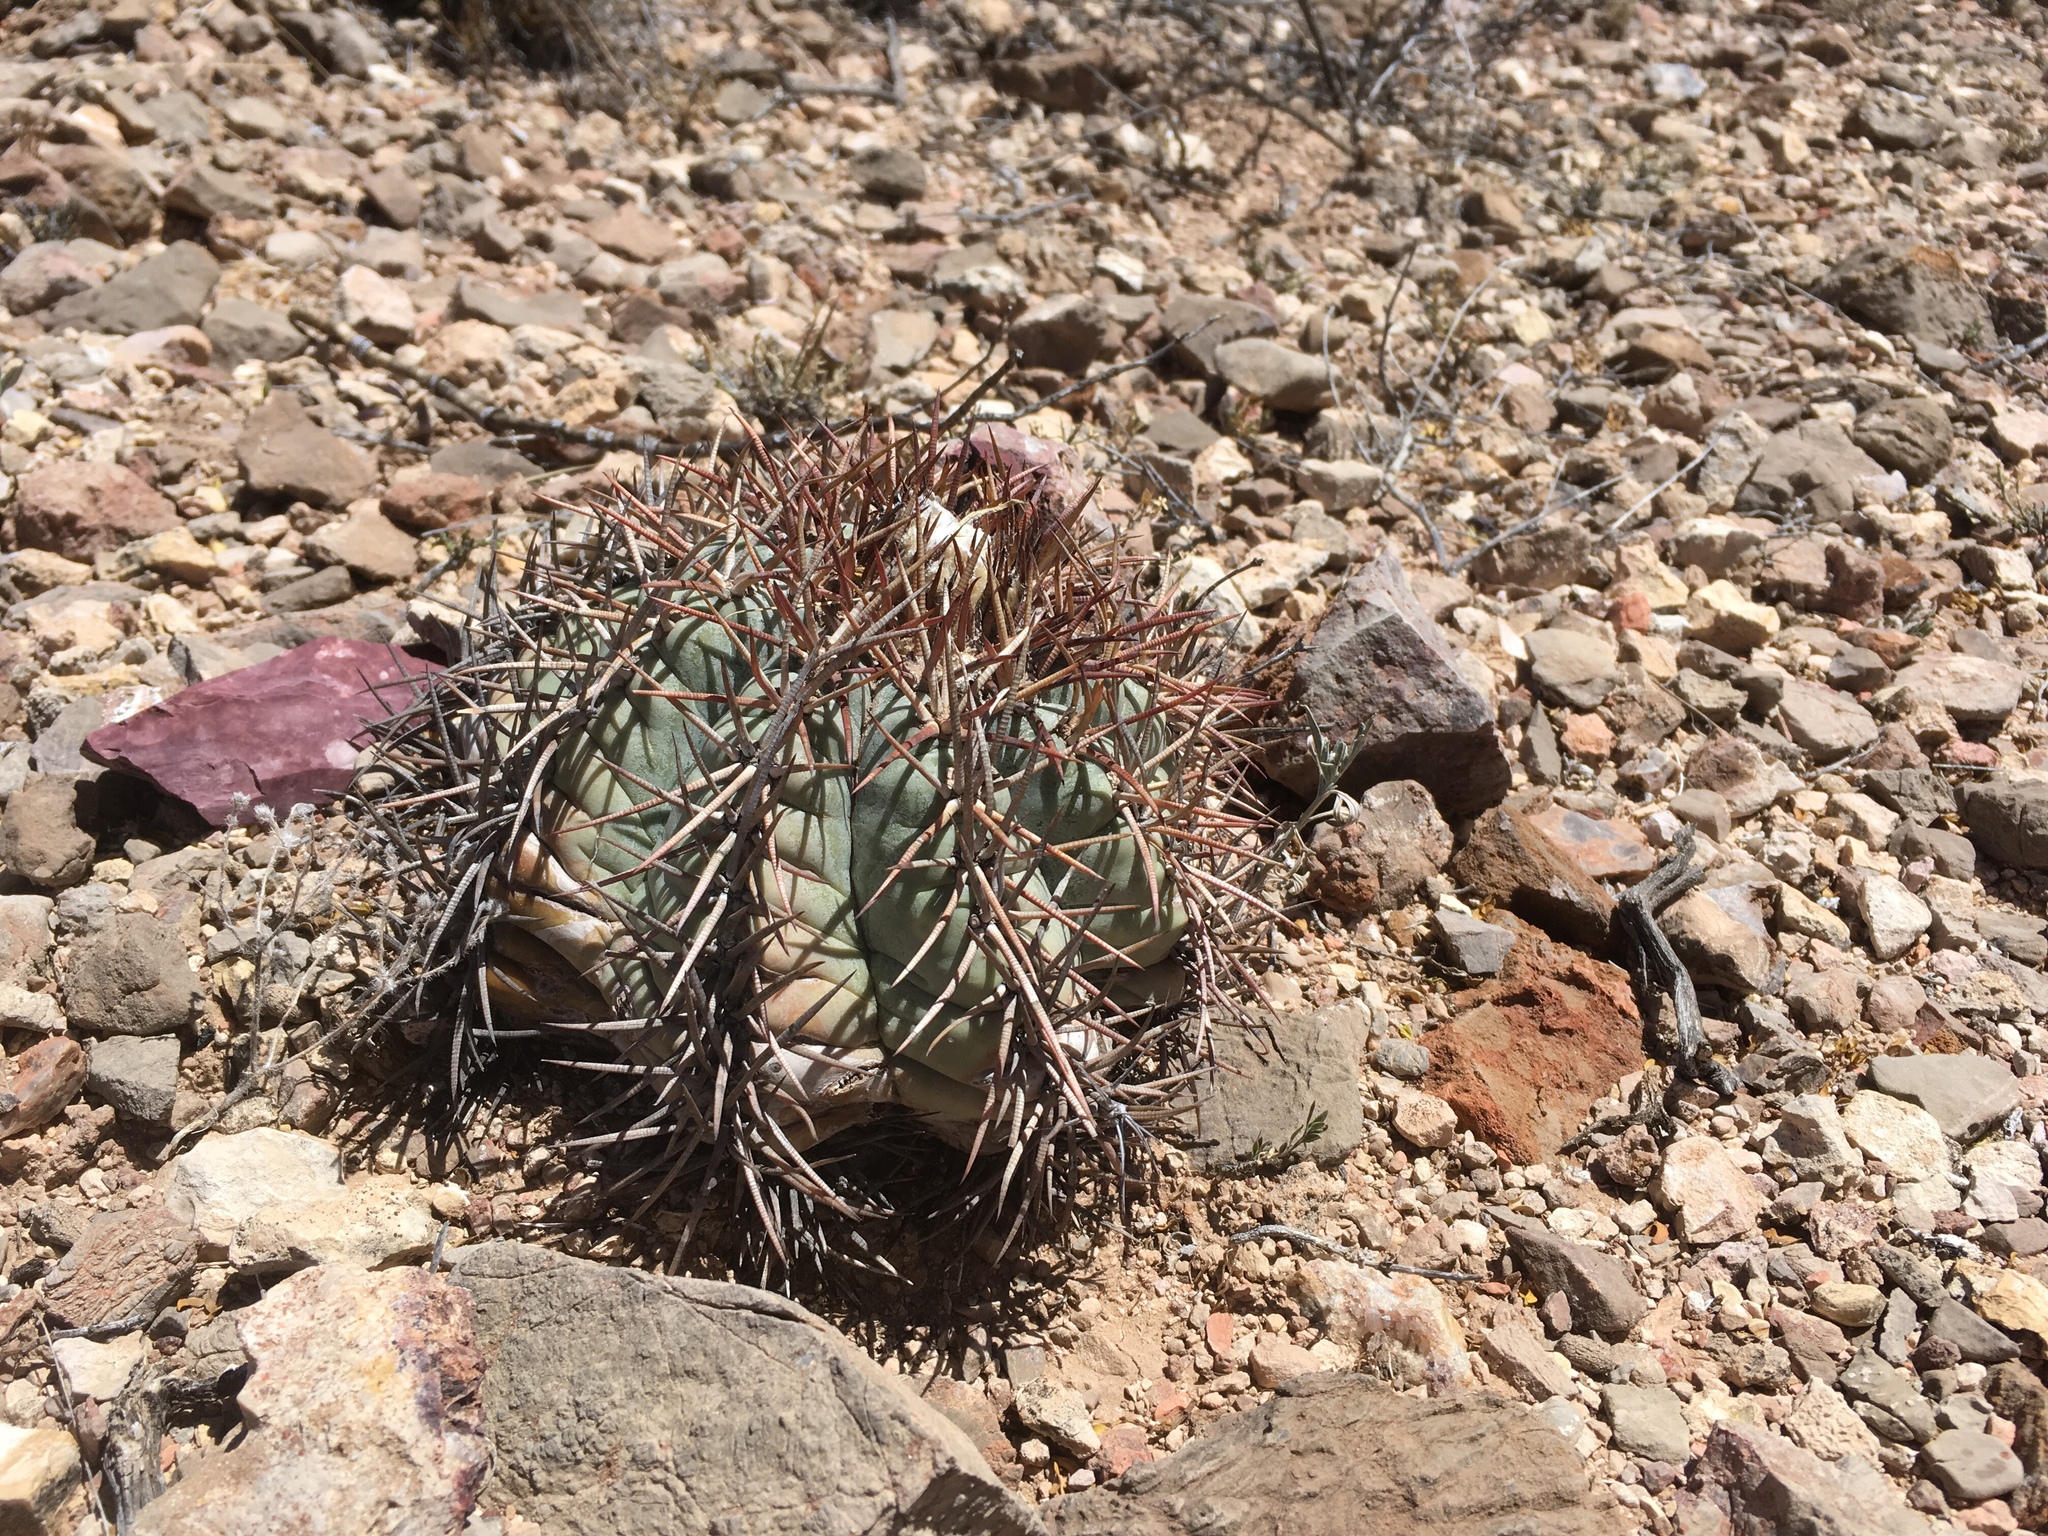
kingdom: Plantae
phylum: Tracheophyta
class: Magnoliopsida
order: Caryophyllales
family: Cactaceae
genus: Echinocactus
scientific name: Echinocactus horizonthalonius
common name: Devilshead
